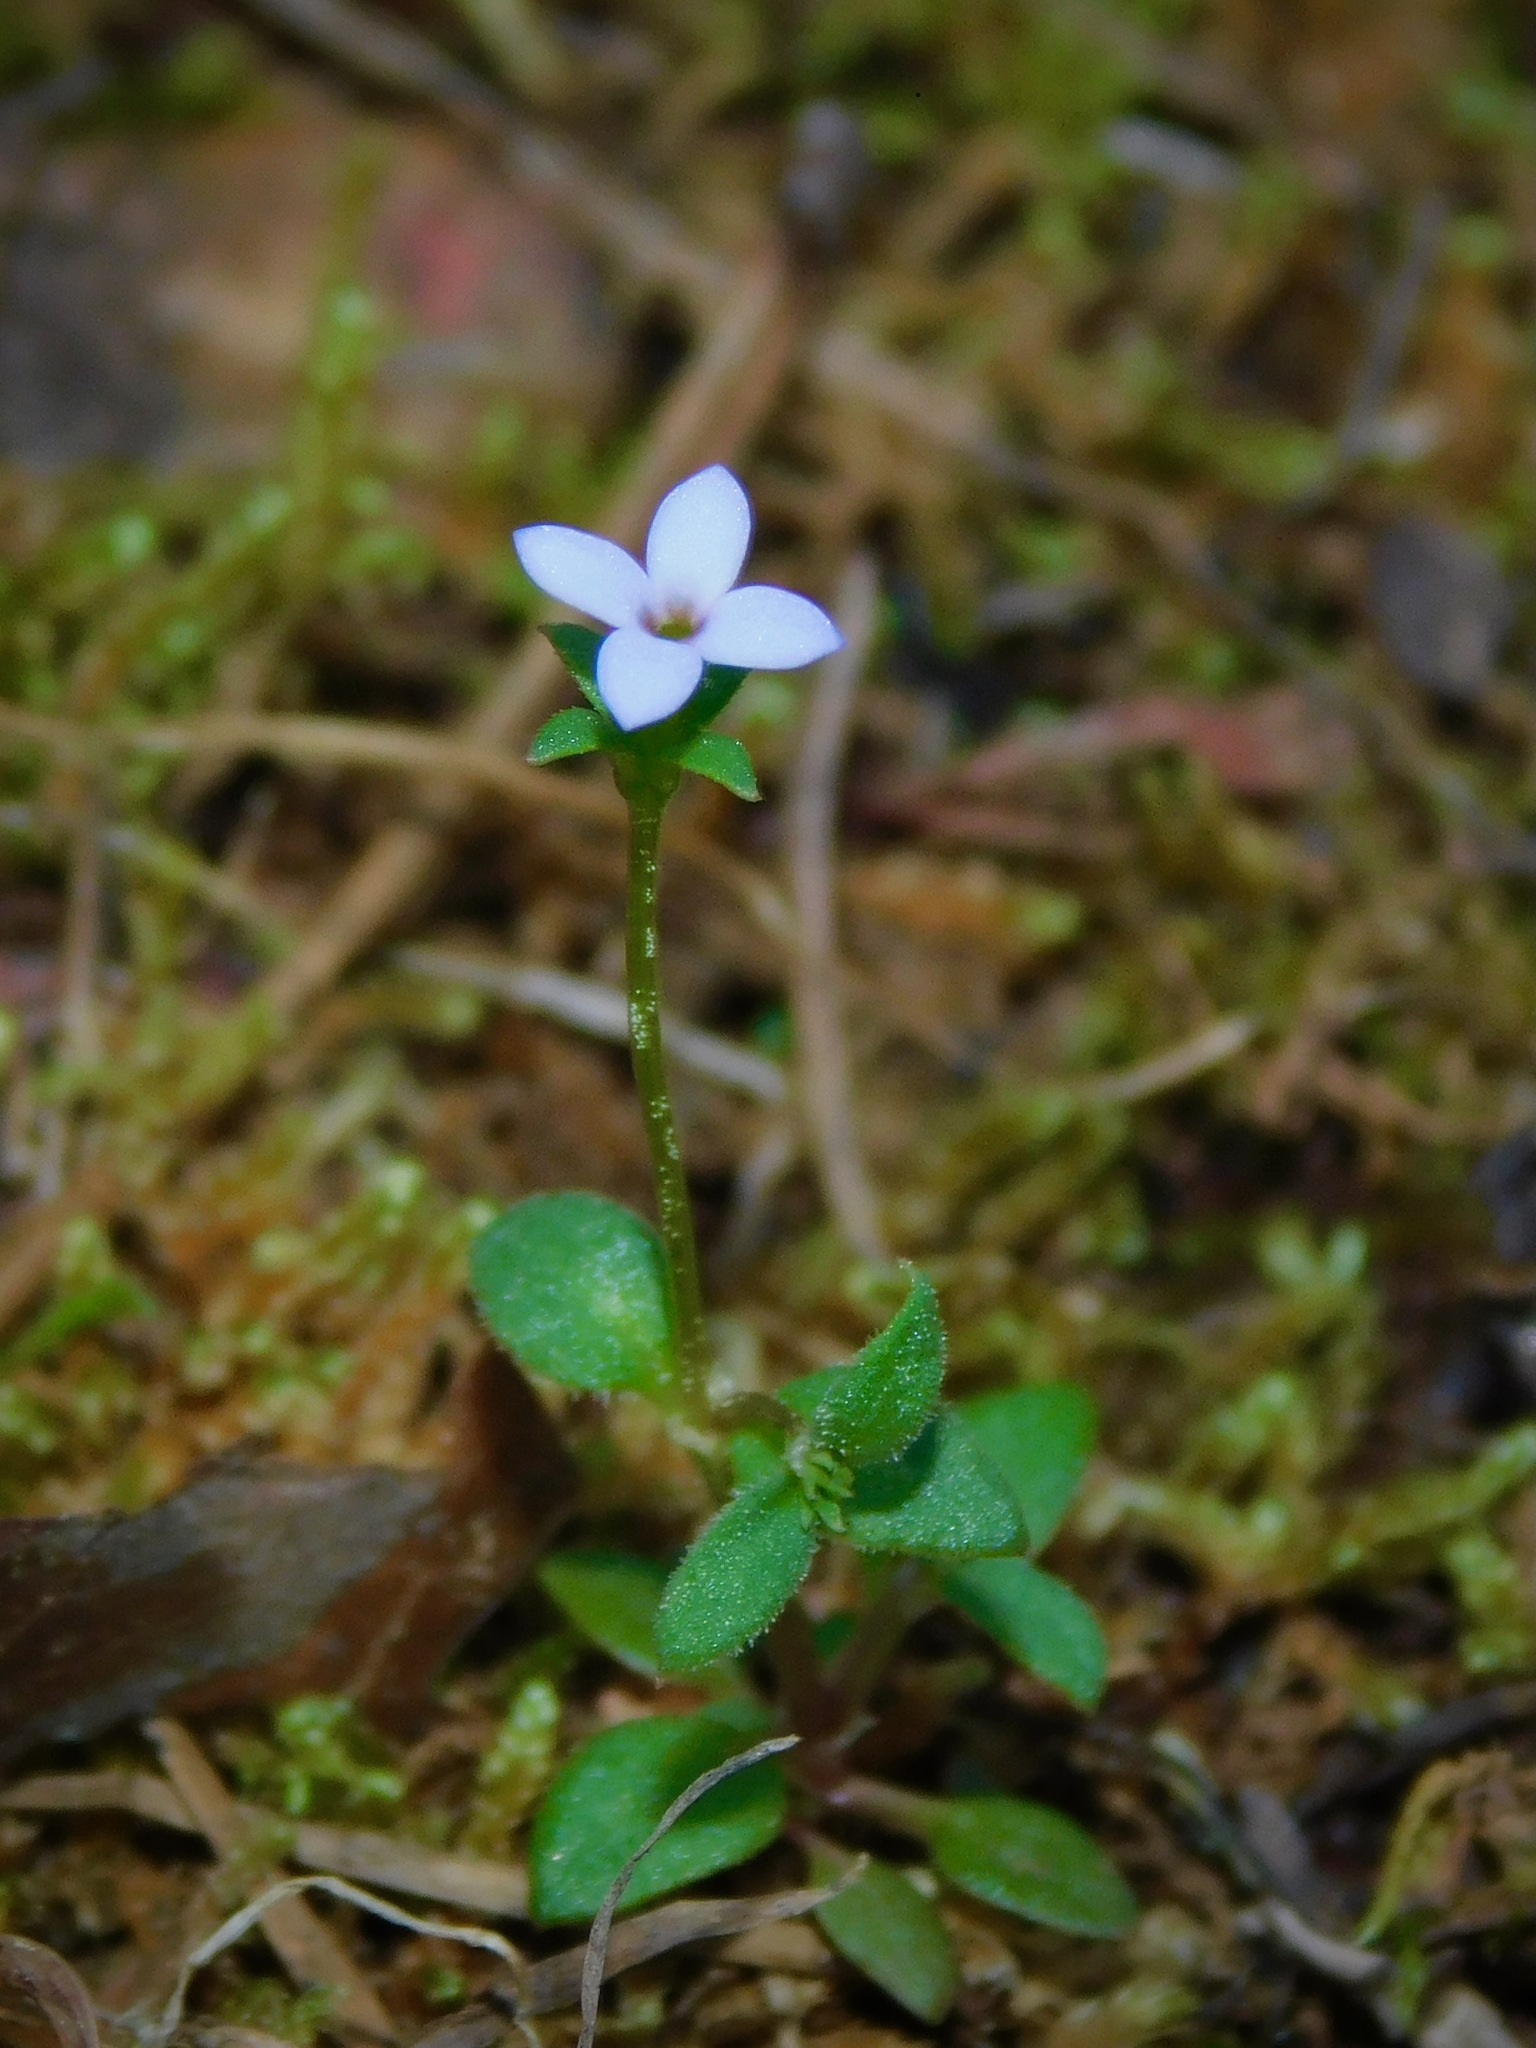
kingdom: Plantae
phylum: Tracheophyta
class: Magnoliopsida
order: Gentianales
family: Rubiaceae
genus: Houstonia
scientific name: Houstonia pusilla
